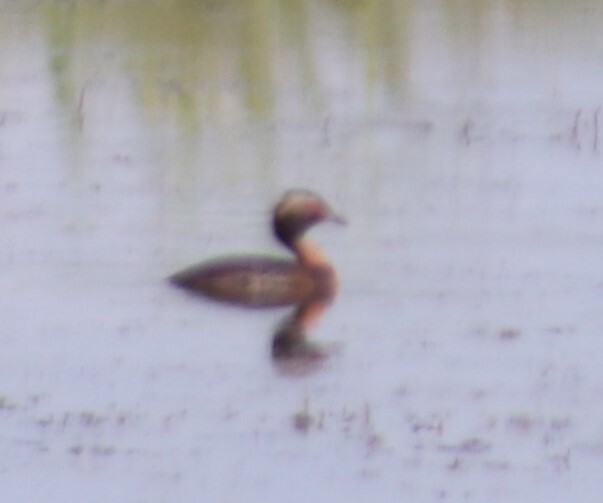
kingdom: Animalia
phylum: Chordata
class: Aves
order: Podicipediformes
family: Podicipedidae
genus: Podiceps
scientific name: Podiceps auritus
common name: Horned grebe
